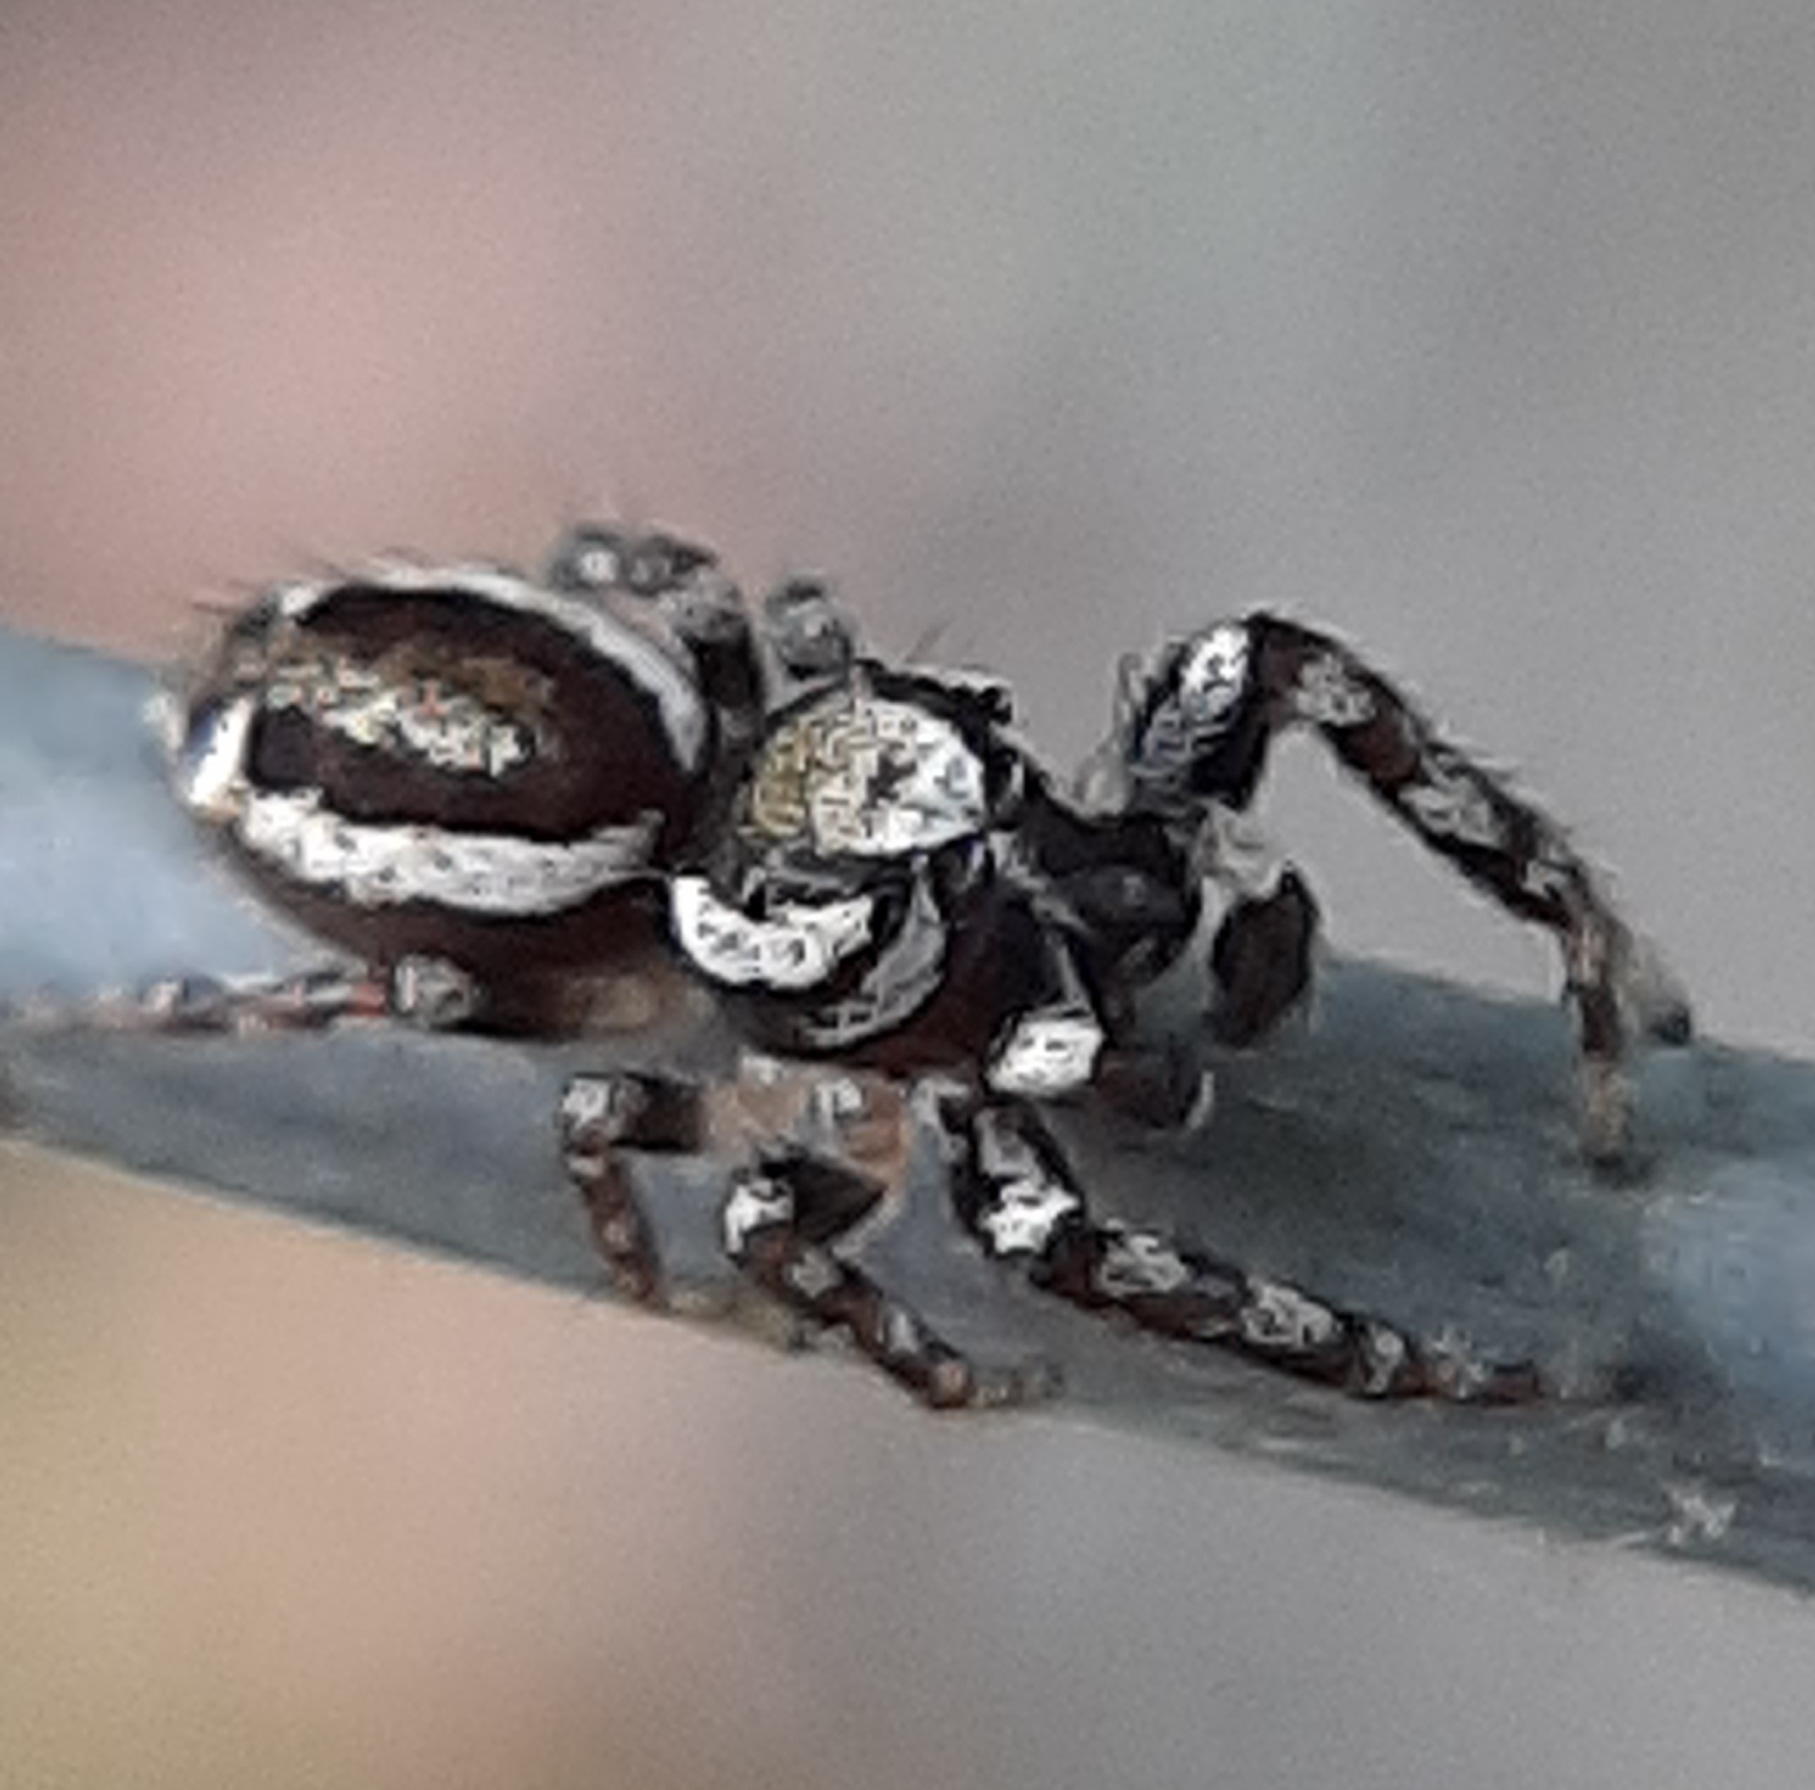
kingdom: Animalia
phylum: Arthropoda
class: Arachnida
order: Araneae
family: Salticidae
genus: Pelegrina
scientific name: Pelegrina proterva
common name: Common white-cheeked jumping spider
